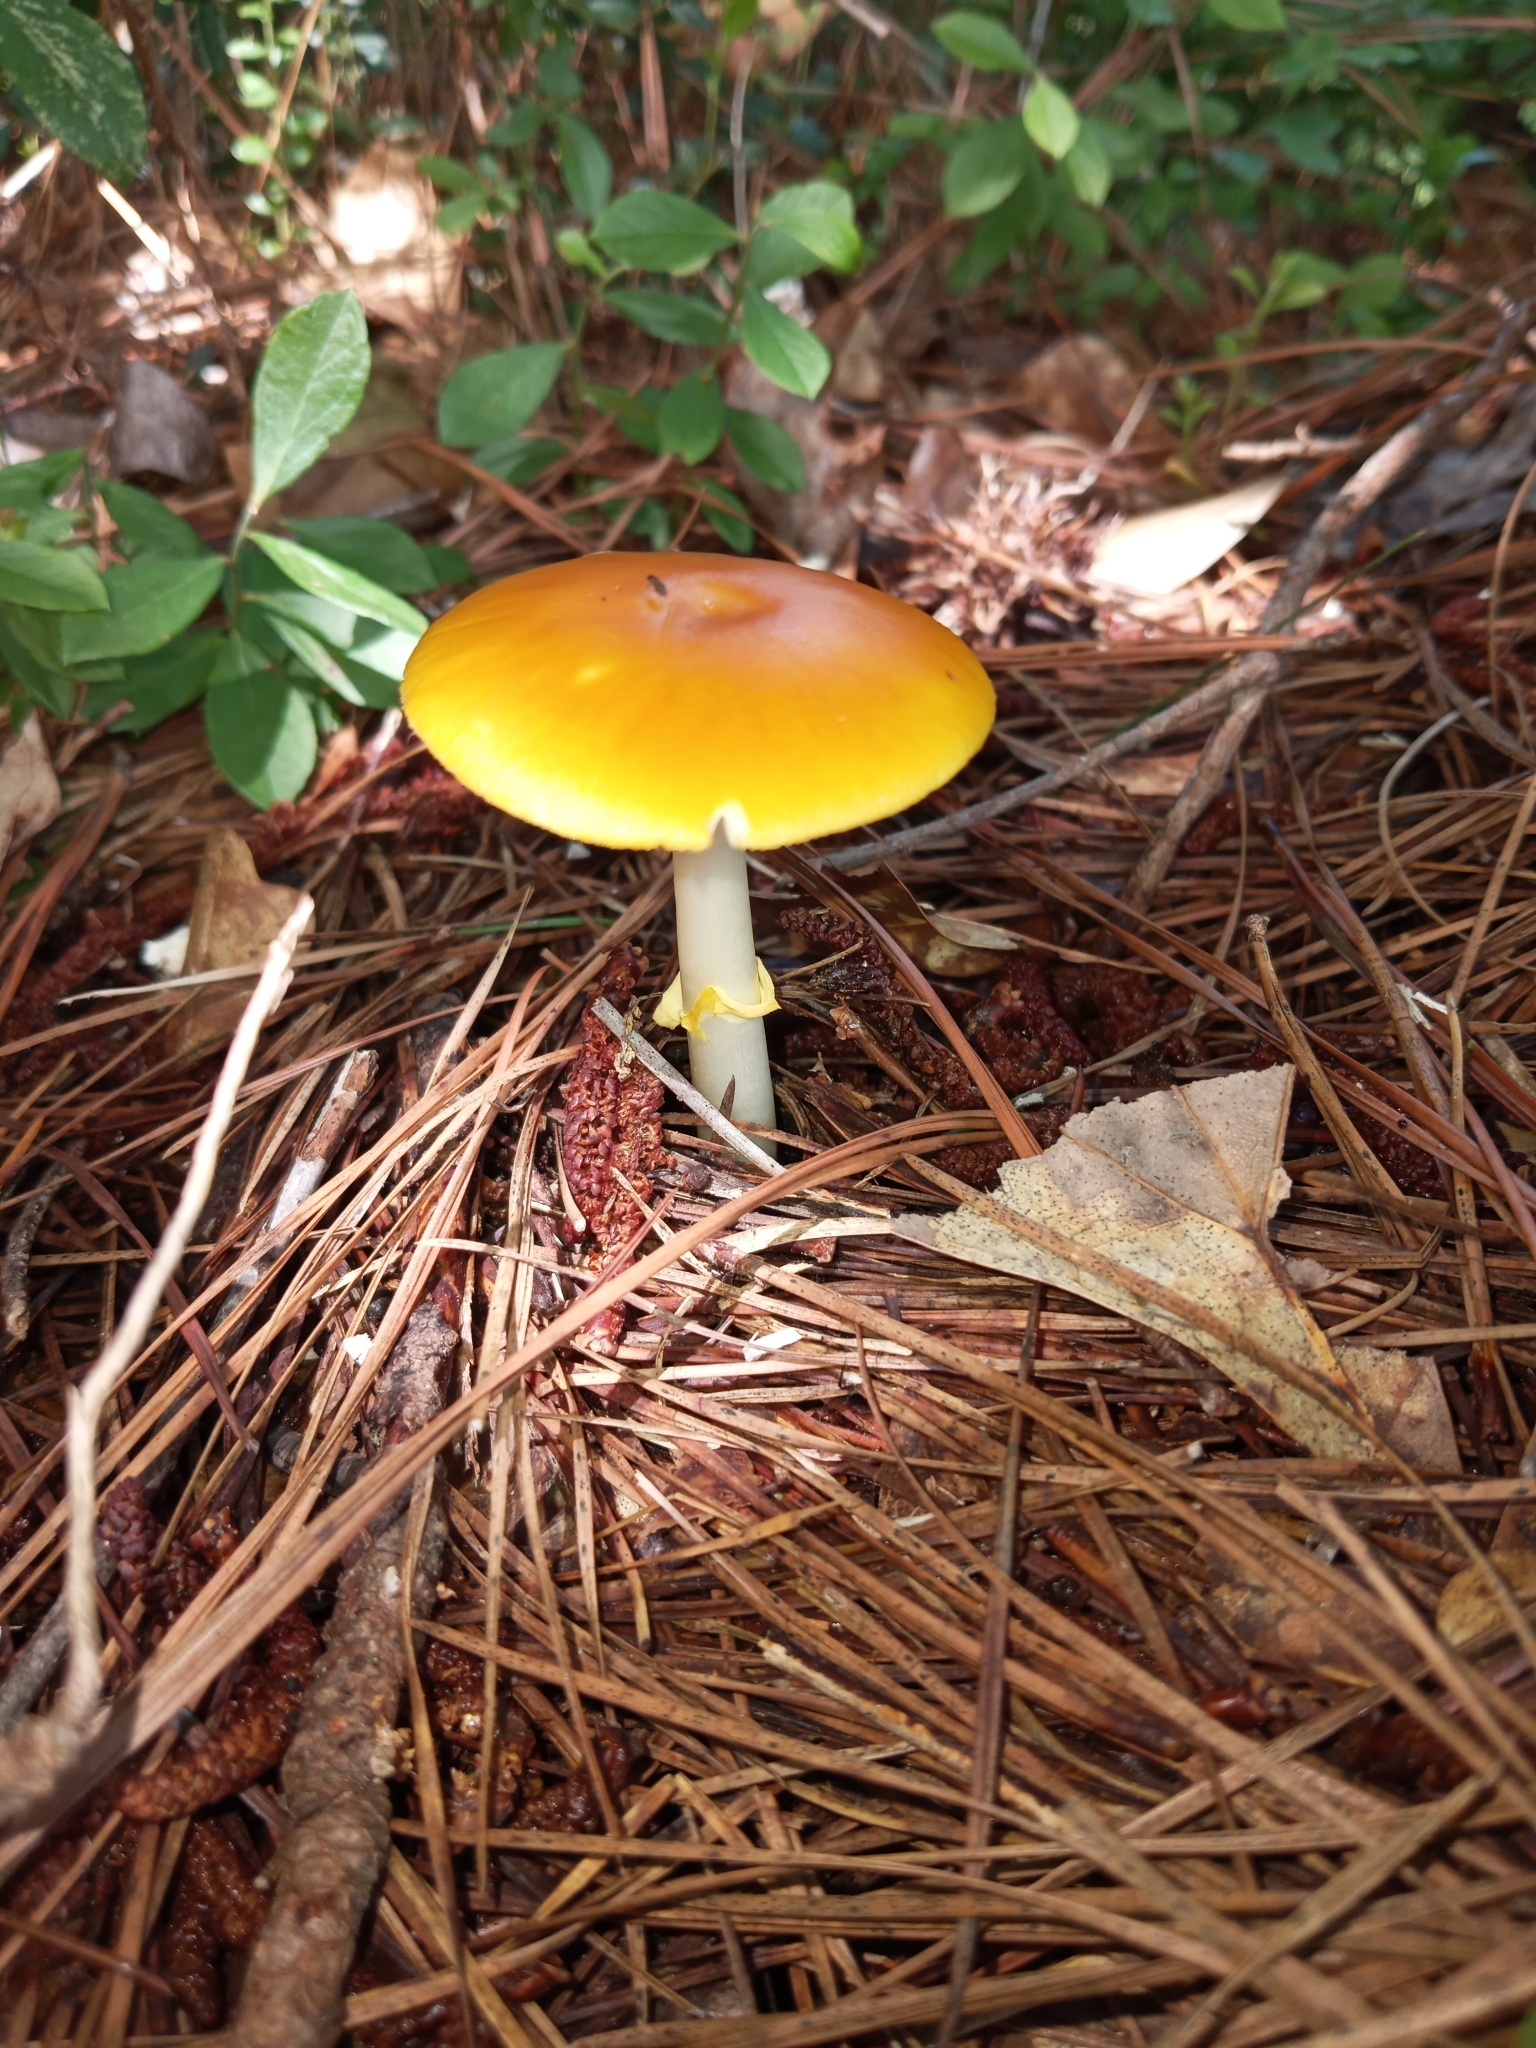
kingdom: Fungi
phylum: Basidiomycota
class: Agaricomycetes
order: Agaricales
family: Amanitaceae
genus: Amanita
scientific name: Amanita flavoconia
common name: Yellow patches
